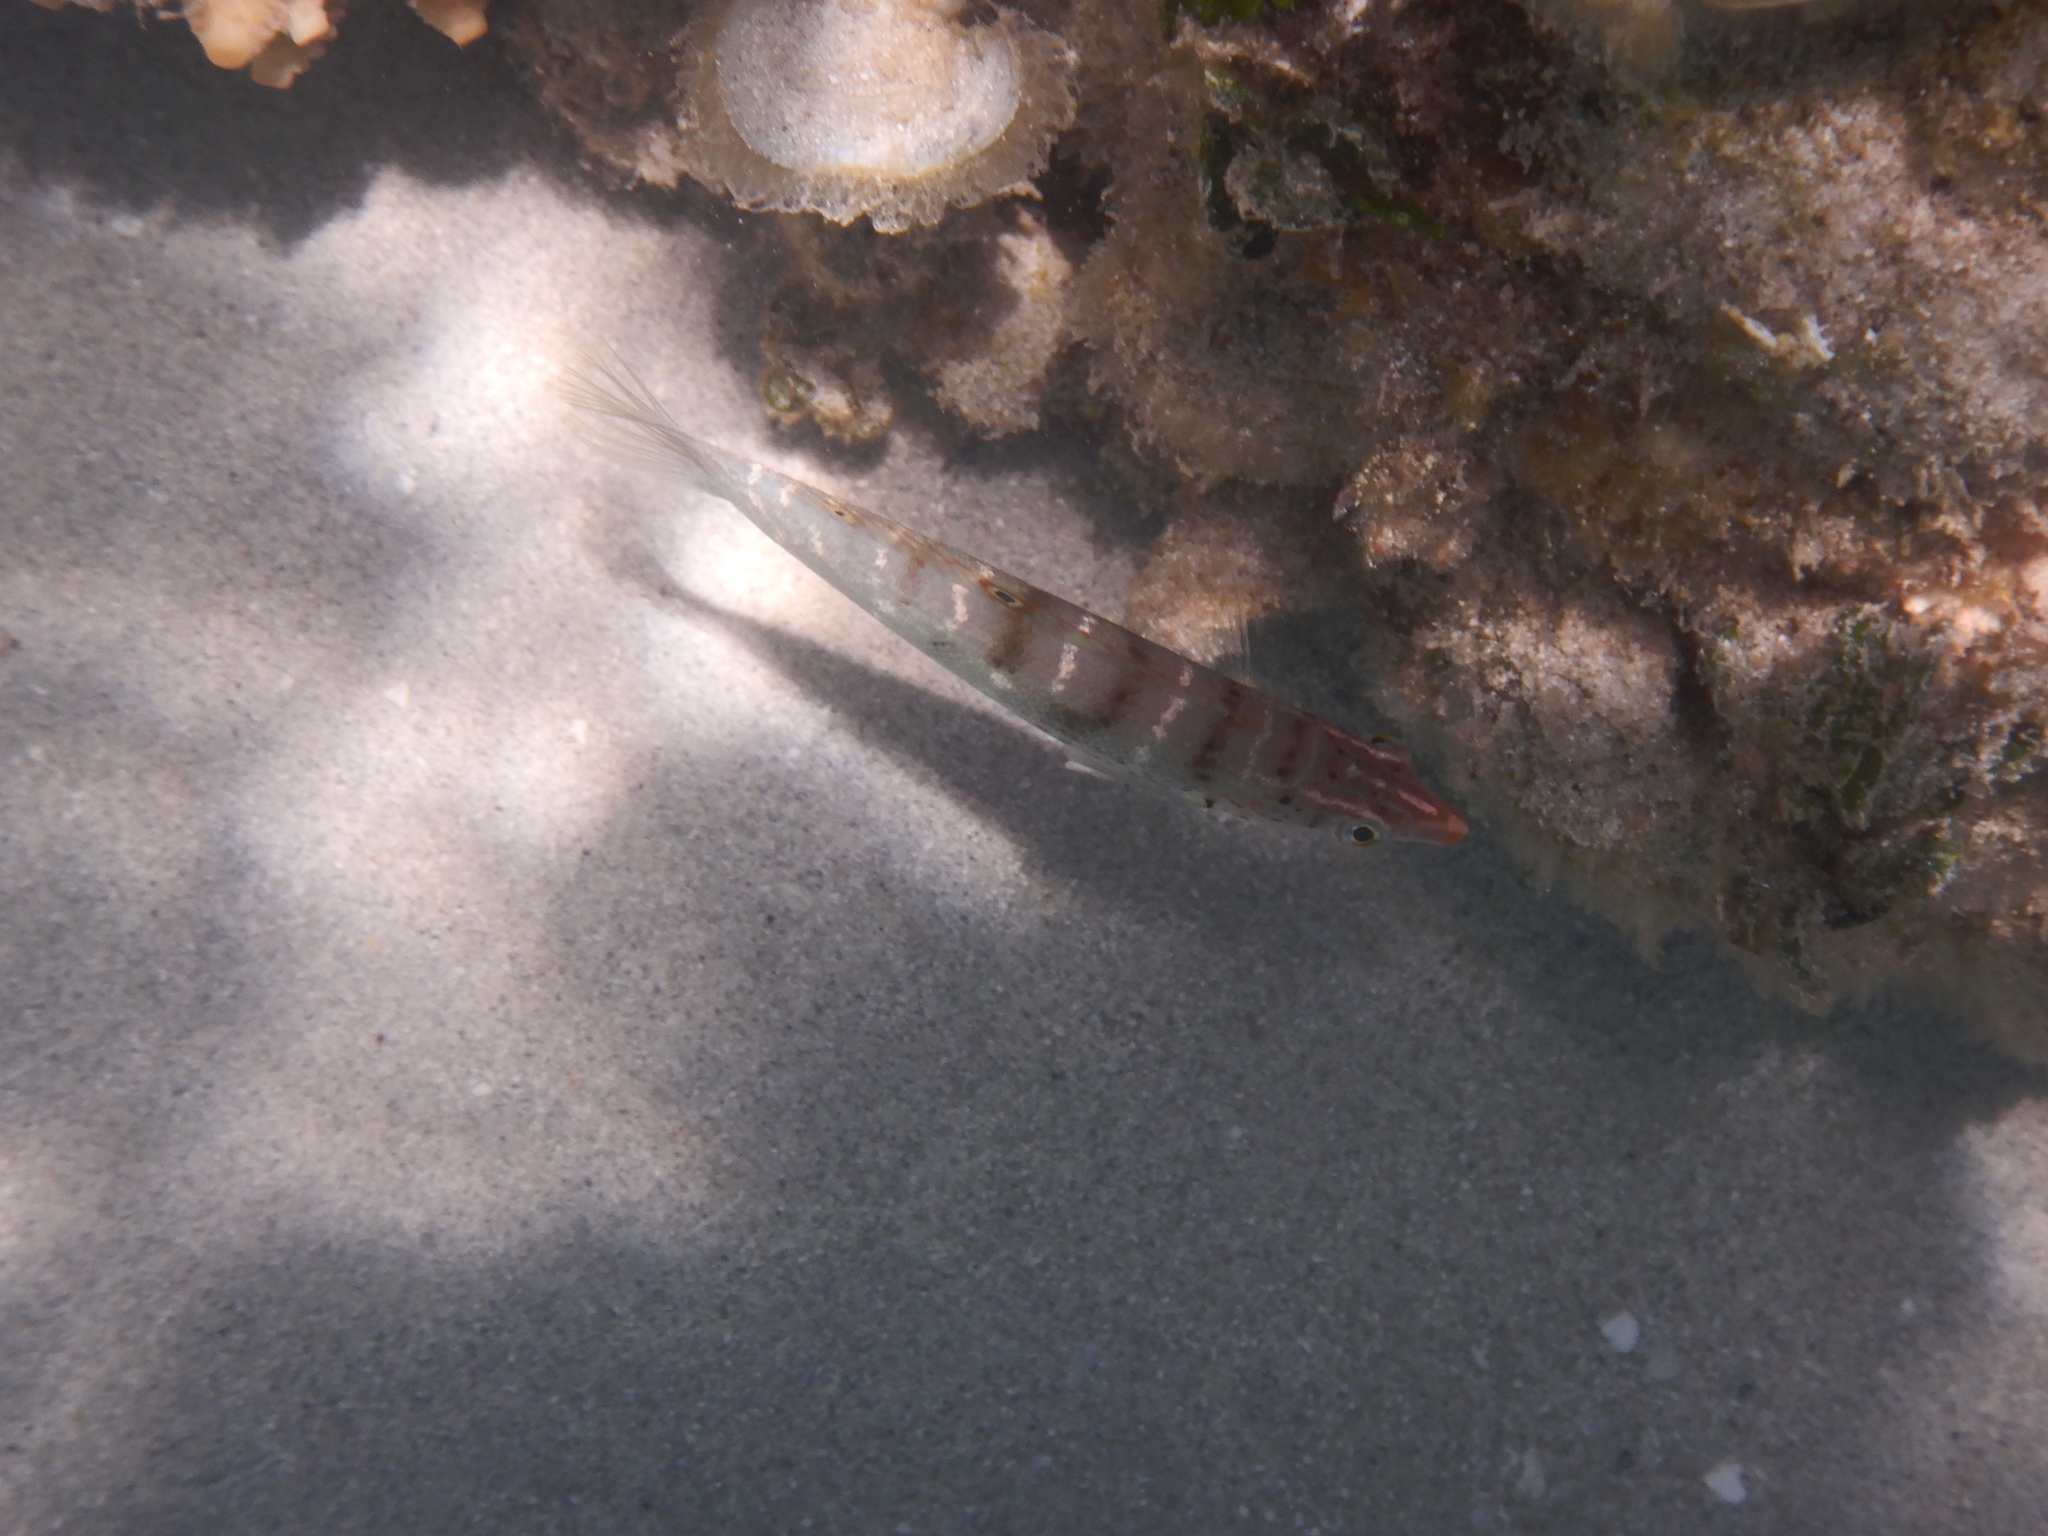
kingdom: Animalia
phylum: Chordata
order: Perciformes
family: Labridae
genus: Coris
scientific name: Coris batuensis
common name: Batu coris
